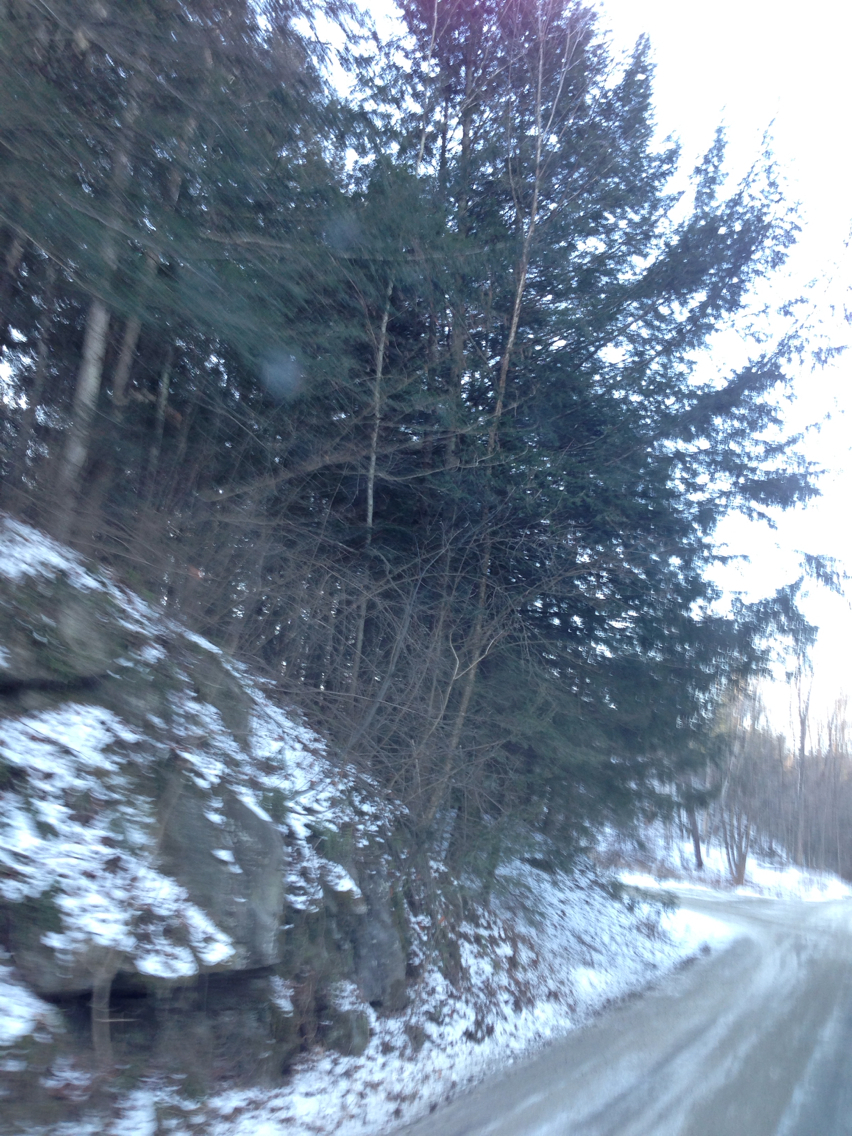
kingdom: Plantae
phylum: Tracheophyta
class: Pinopsida
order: Pinales
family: Pinaceae
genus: Tsuga
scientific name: Tsuga canadensis
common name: Eastern hemlock
